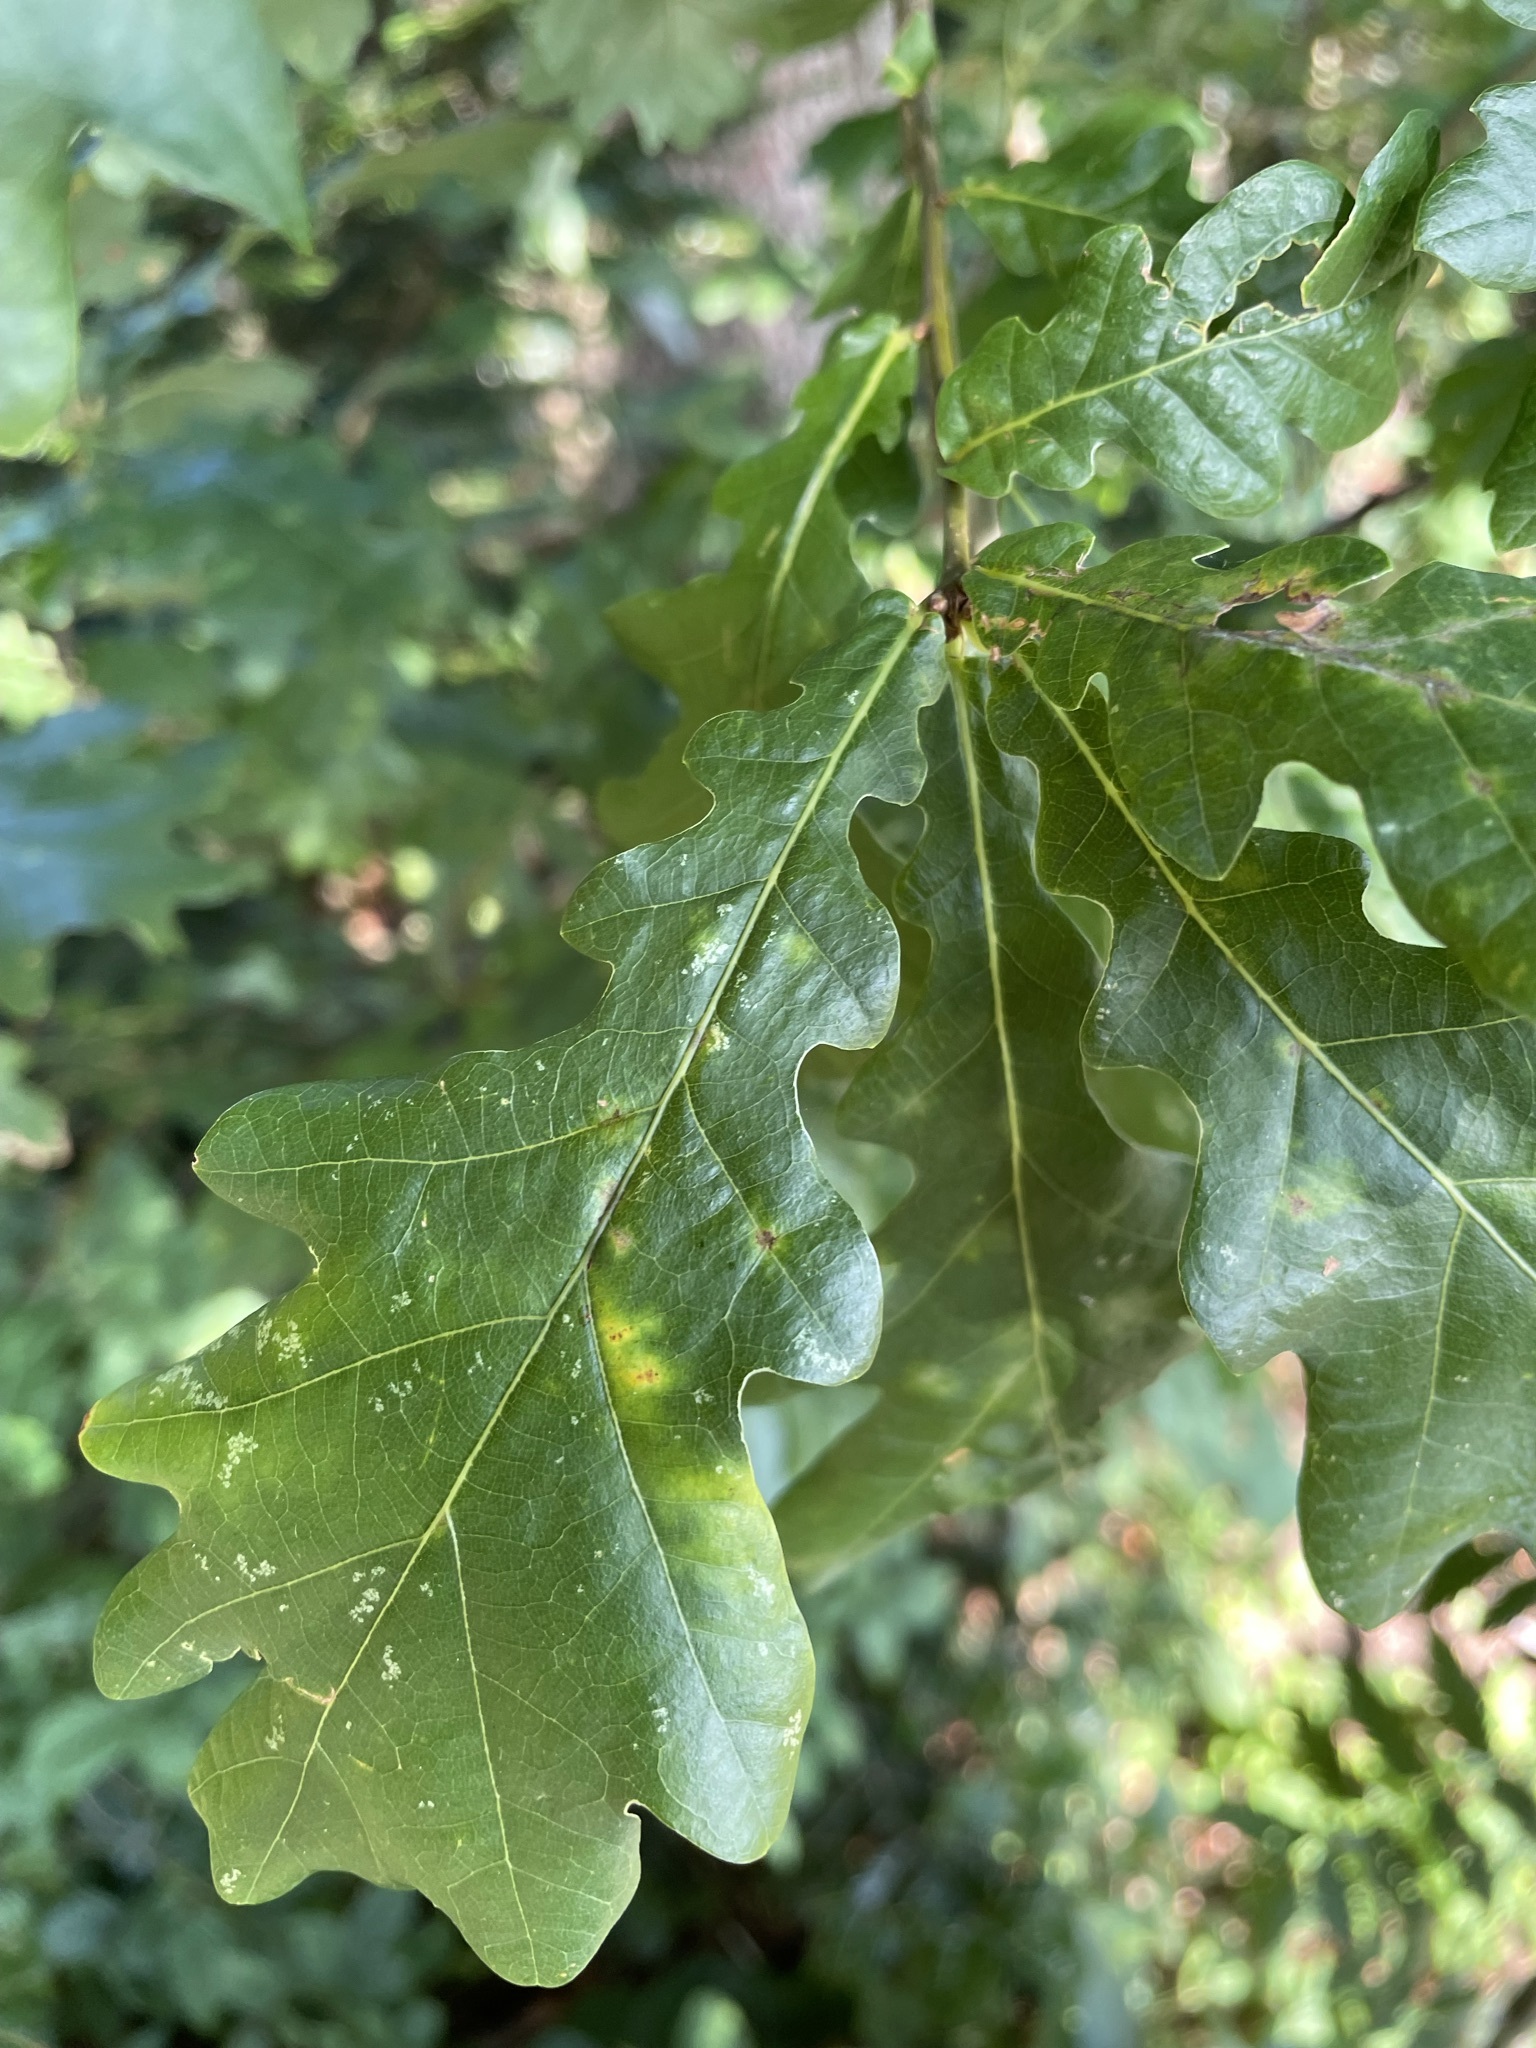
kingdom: Plantae
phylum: Tracheophyta
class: Magnoliopsida
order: Fagales
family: Fagaceae
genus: Quercus
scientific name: Quercus robur
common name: Pedunculate oak
